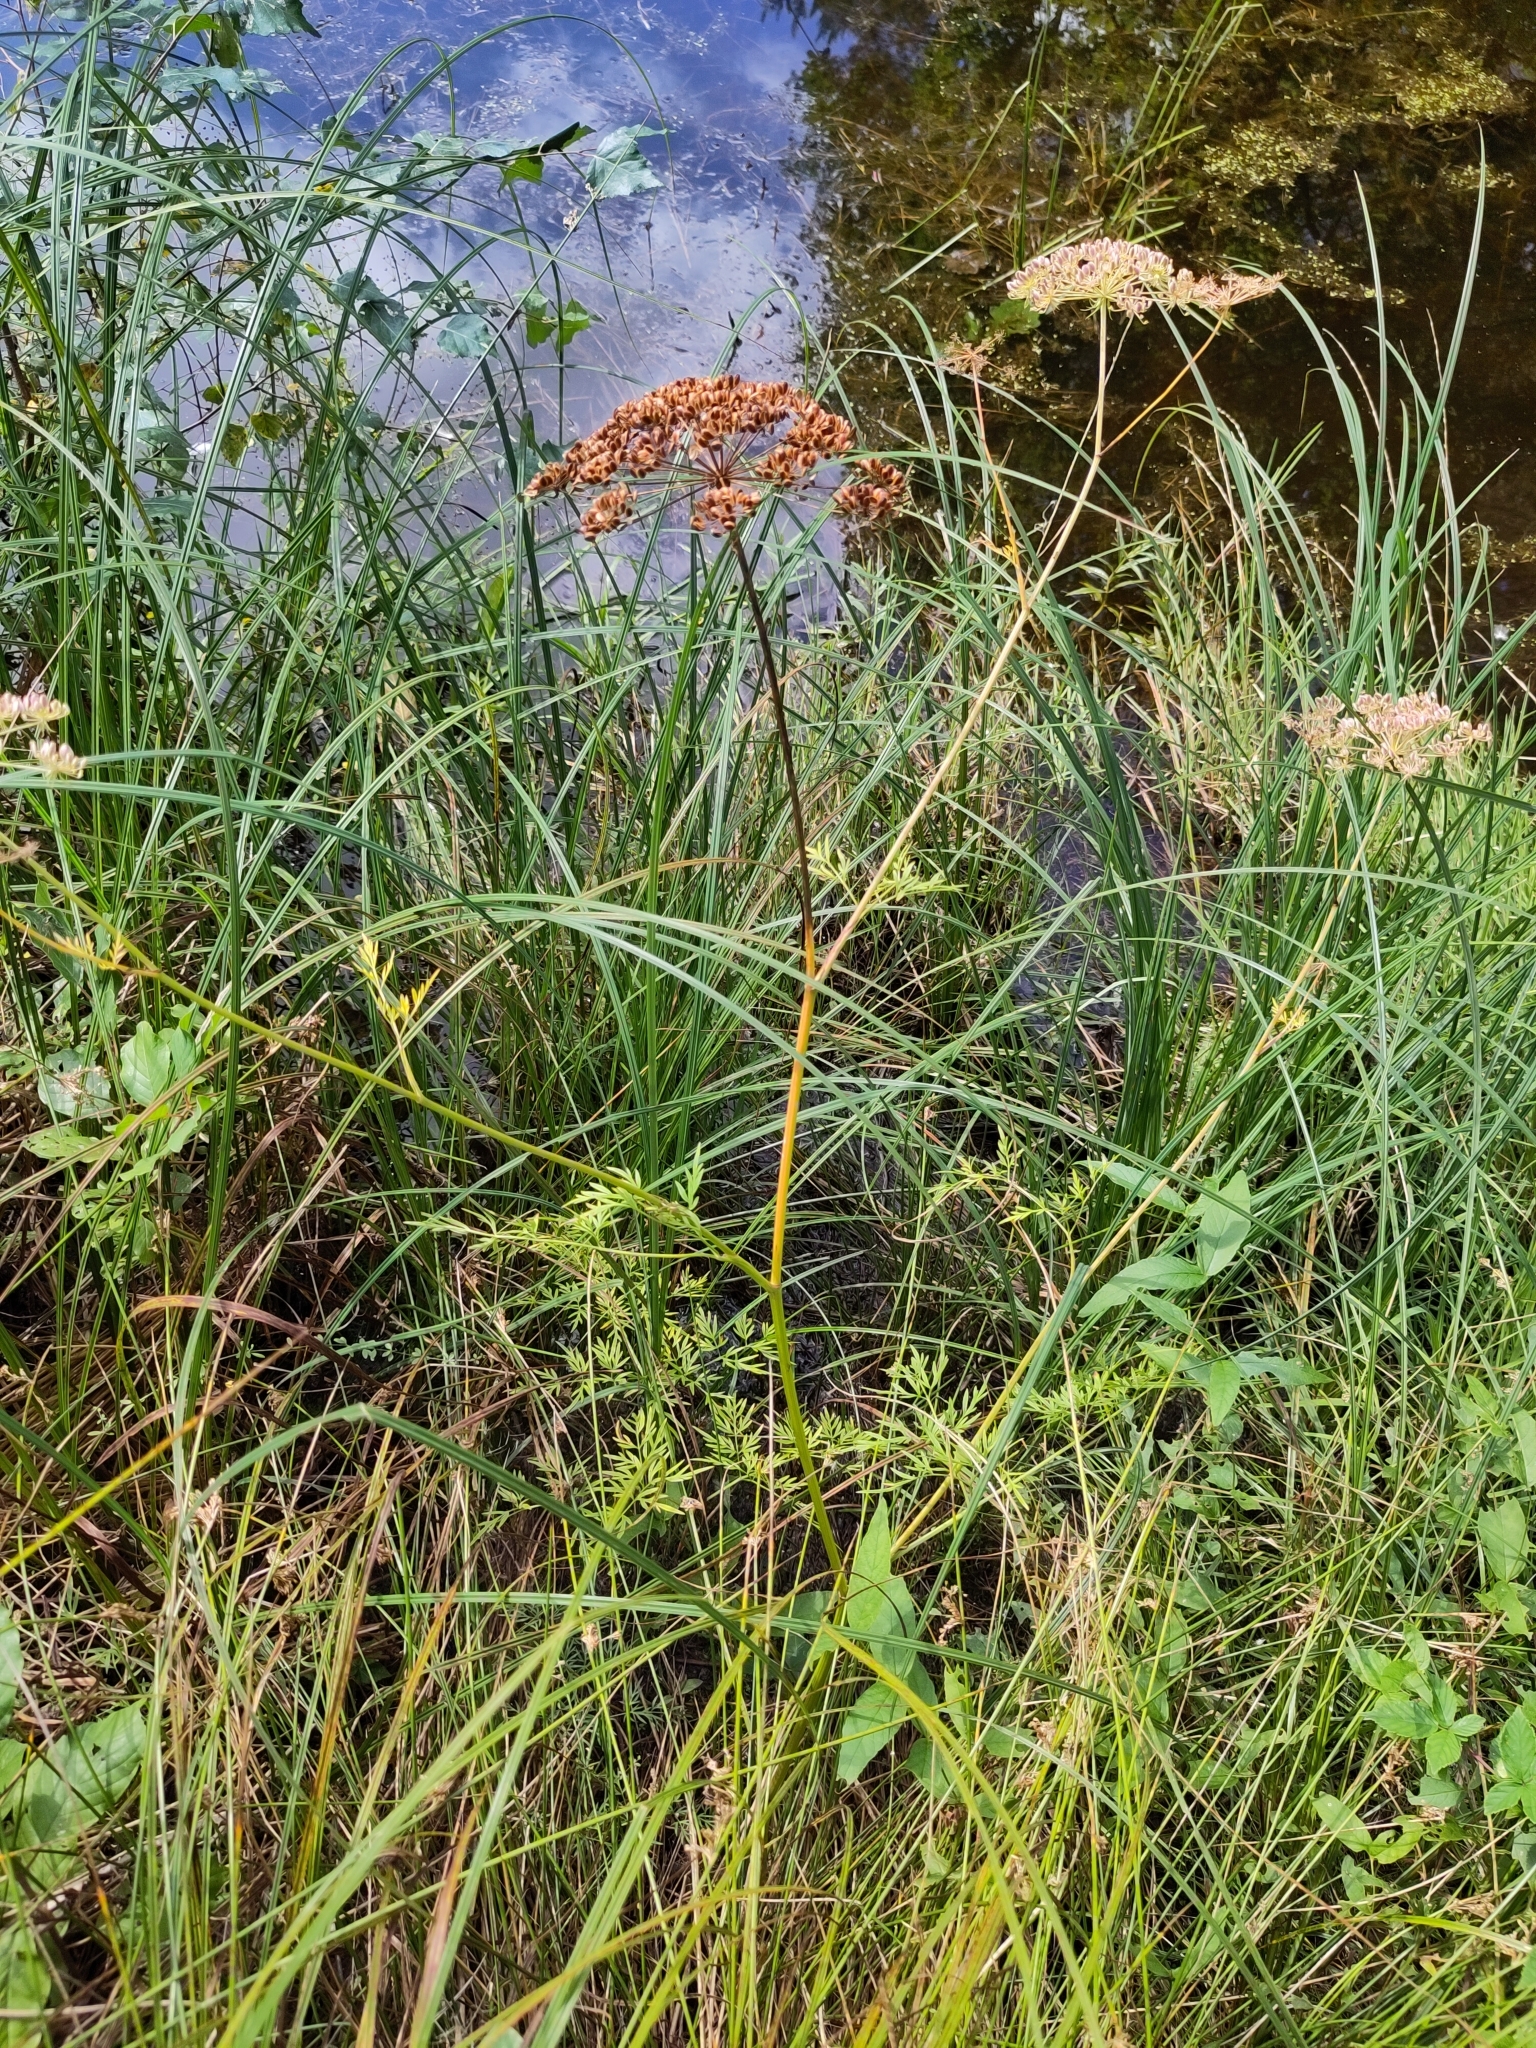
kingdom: Plantae
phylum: Tracheophyta
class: Magnoliopsida
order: Apiales
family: Apiaceae
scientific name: Apiaceae
